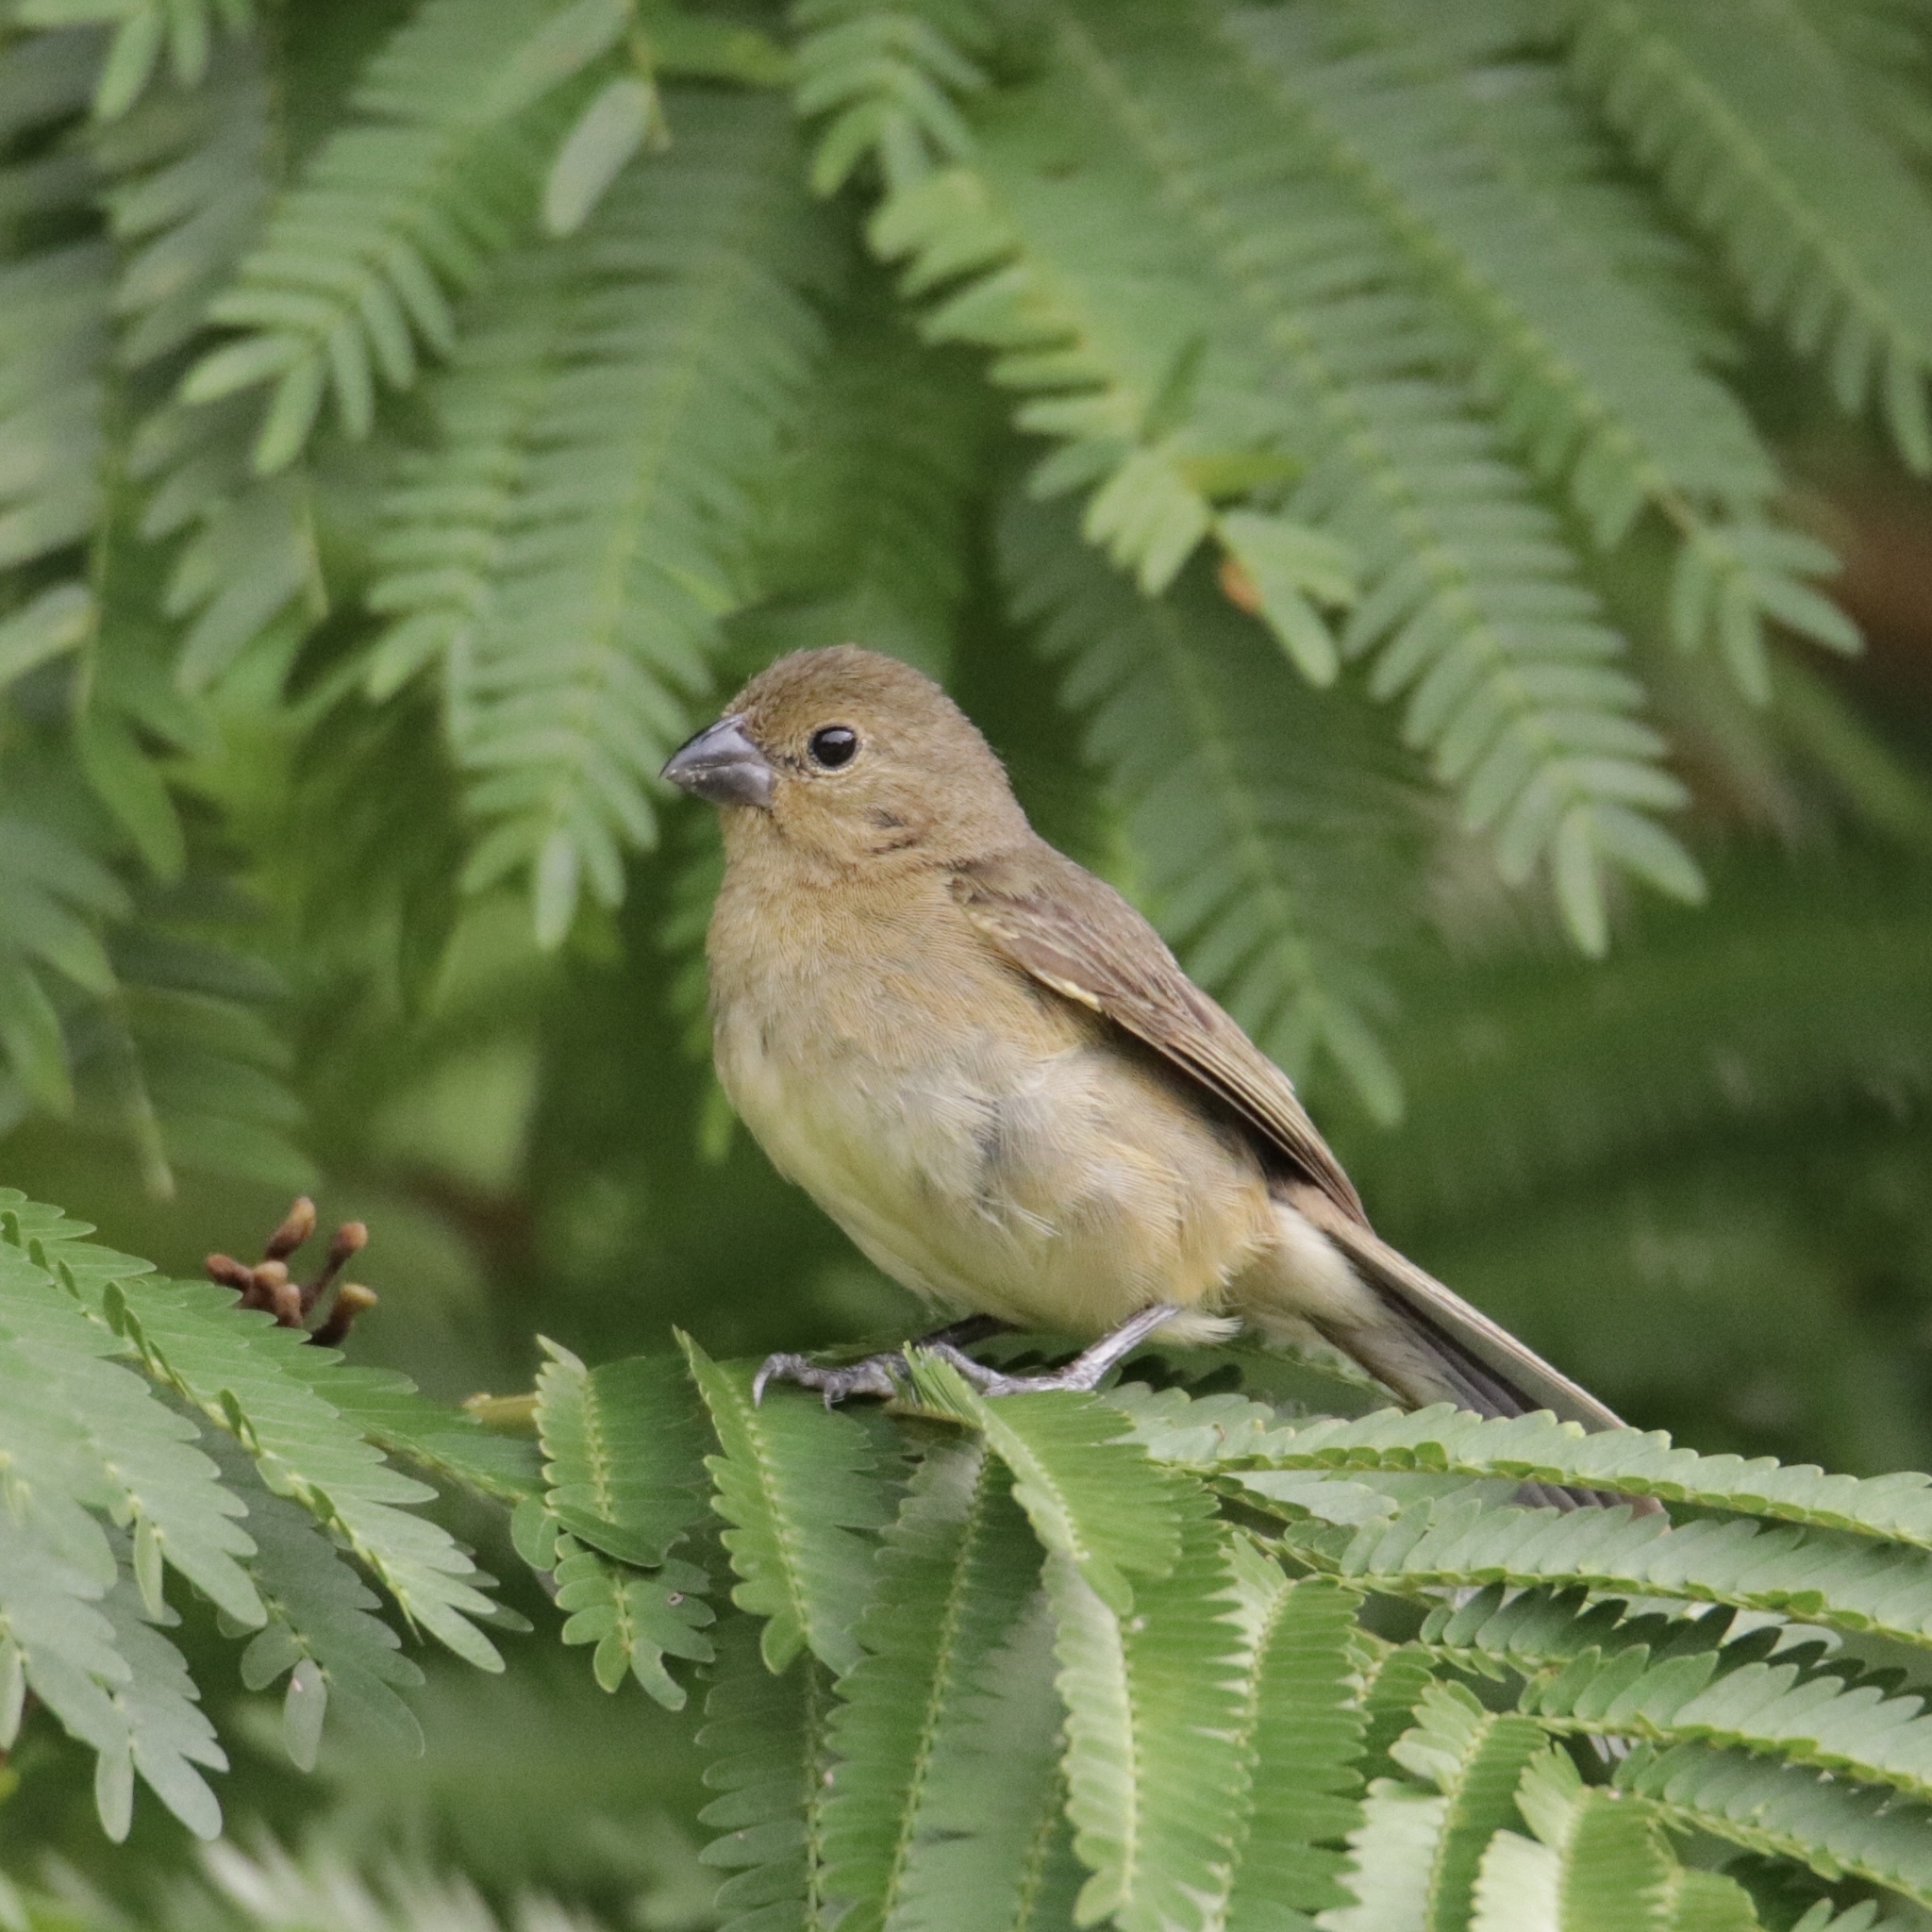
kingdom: Animalia
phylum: Chordata
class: Aves
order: Passeriformes
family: Thraupidae
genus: Sporophila
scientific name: Sporophila nigricollis
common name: Yellow-bellied seedeater
